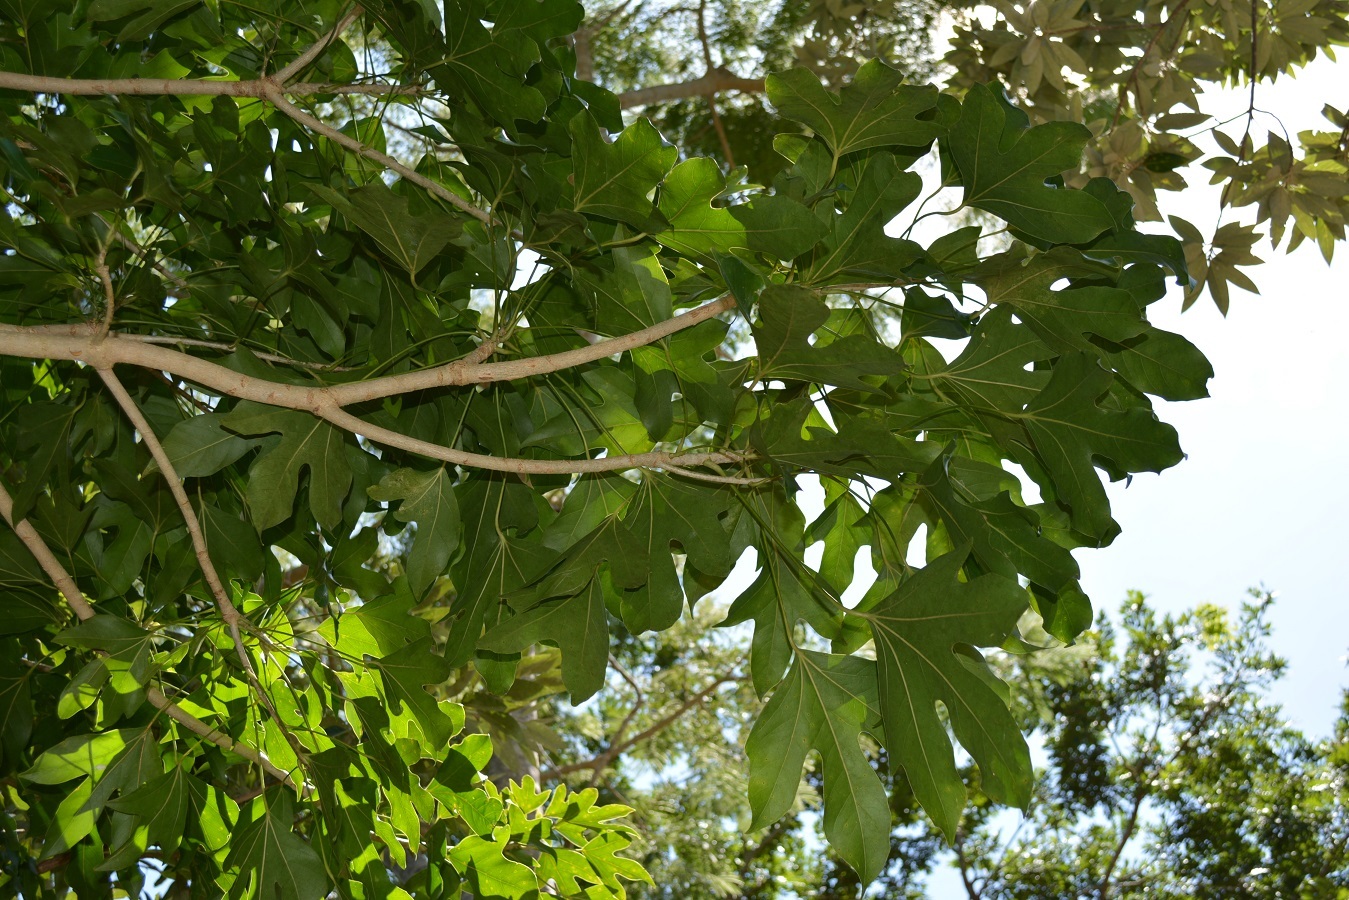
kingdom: Plantae
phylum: Tracheophyta
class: Magnoliopsida
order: Apiales
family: Araliaceae
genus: Dendropanax
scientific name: Dendropanax latilobus
